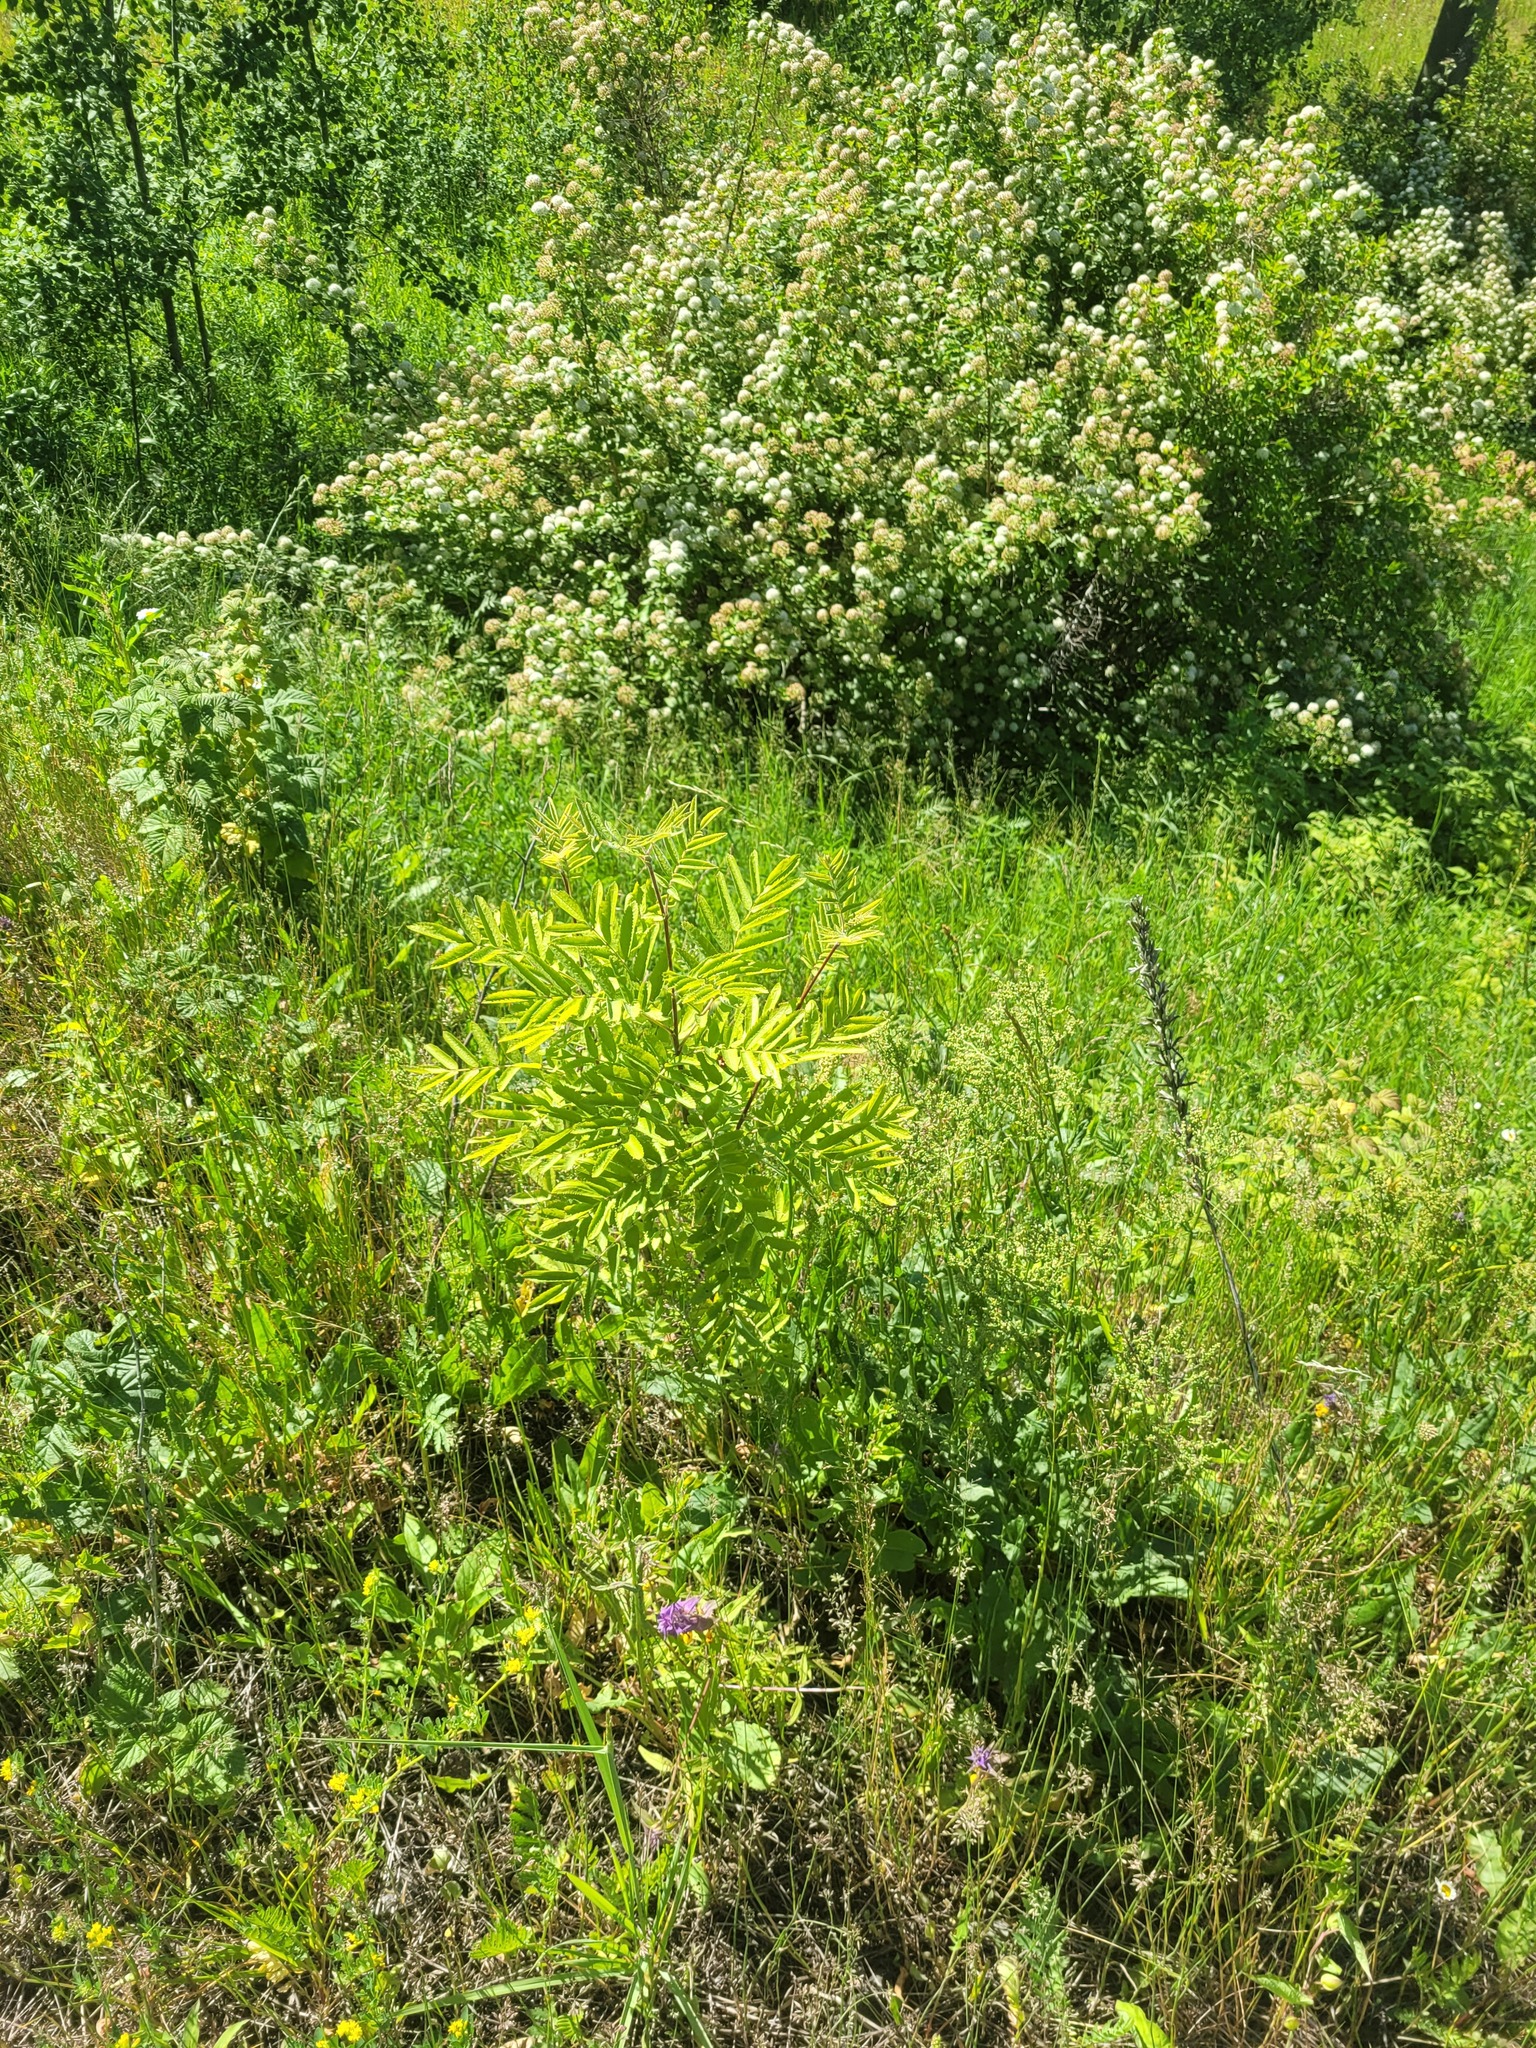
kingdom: Plantae
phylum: Tracheophyta
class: Magnoliopsida
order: Rosales
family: Rosaceae
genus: Sorbus
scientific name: Sorbus aucuparia
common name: Rowan
